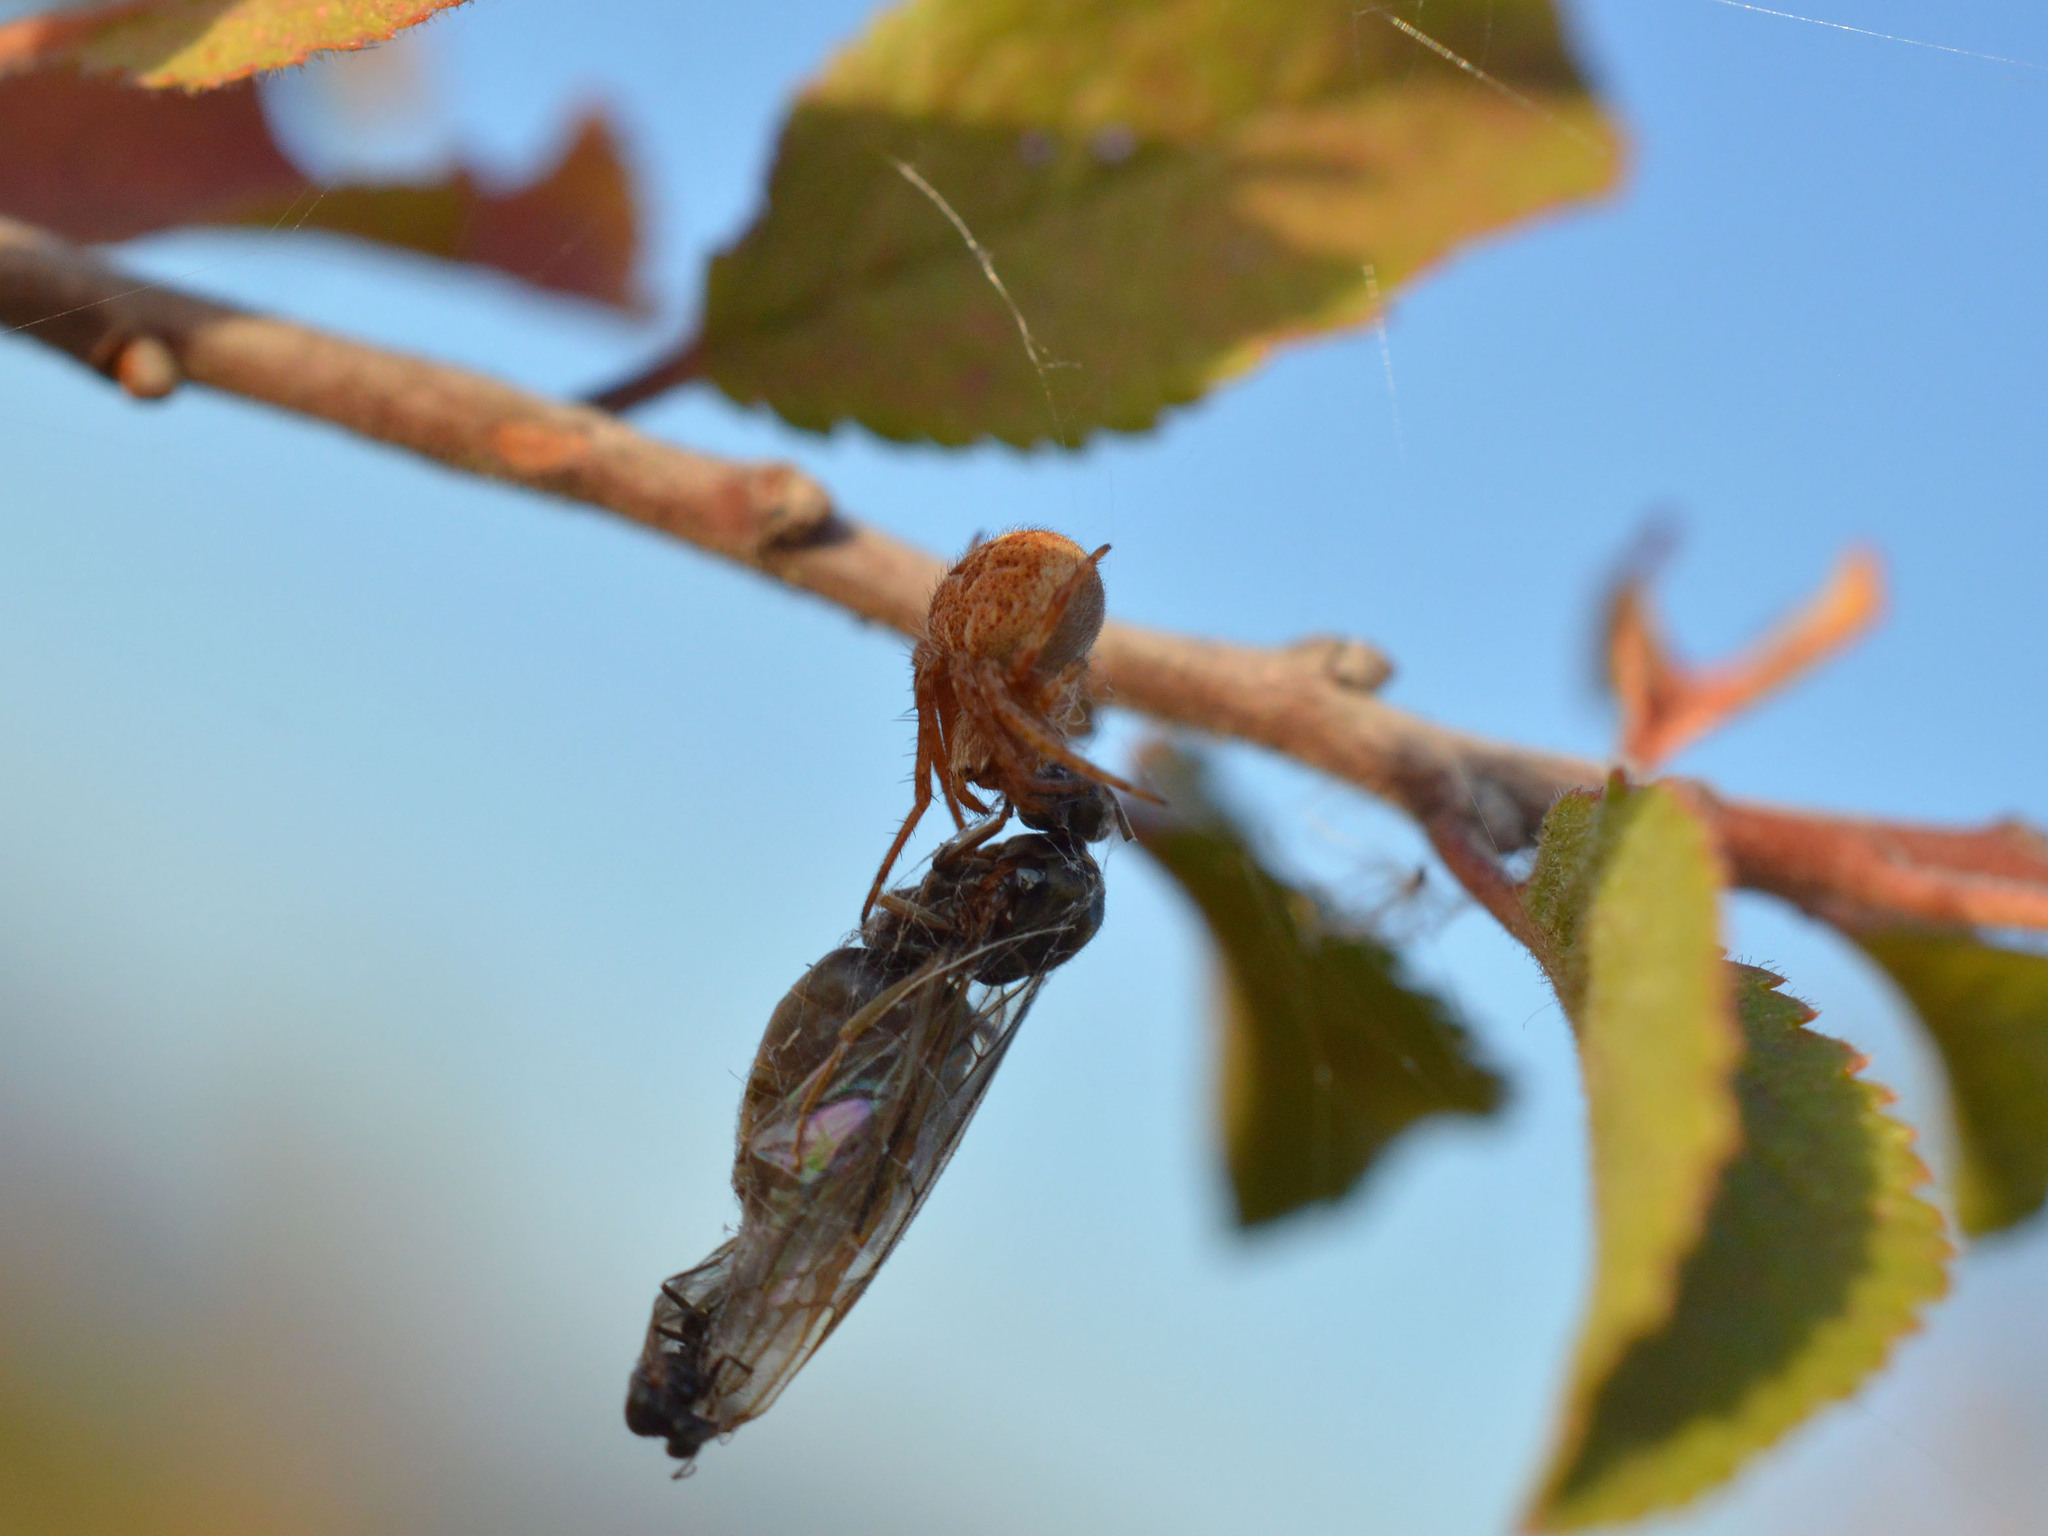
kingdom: Animalia
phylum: Arthropoda
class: Arachnida
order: Araneae
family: Araneidae
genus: Agalenatea
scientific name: Agalenatea redii
